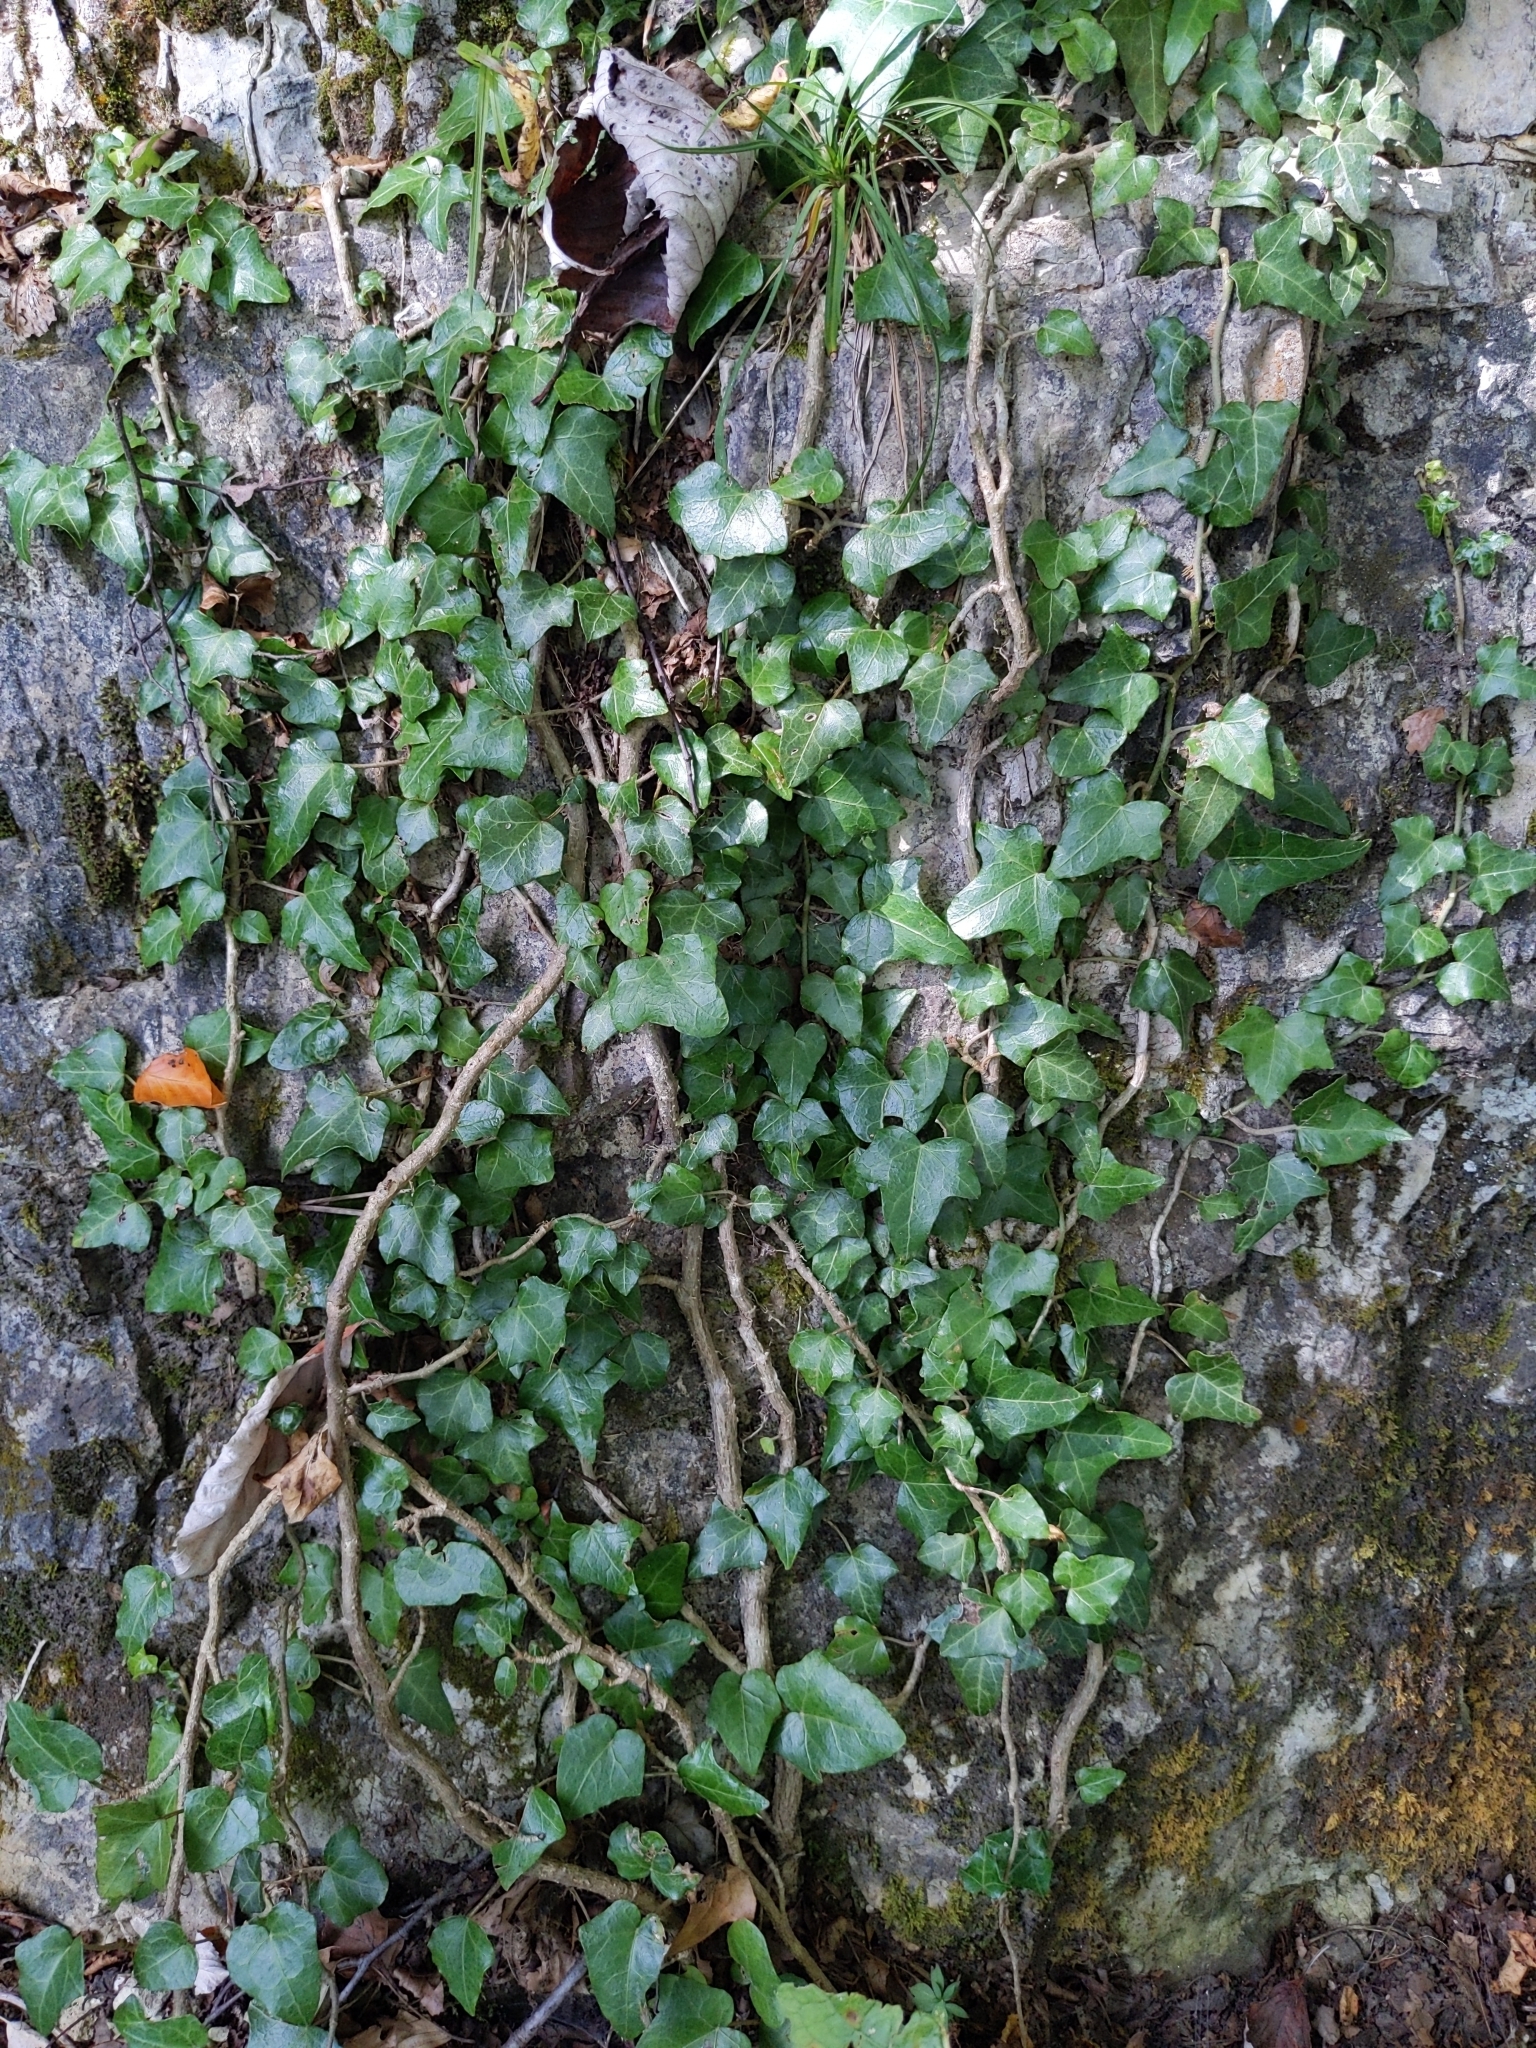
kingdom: Plantae
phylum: Tracheophyta
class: Magnoliopsida
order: Apiales
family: Araliaceae
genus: Hedera
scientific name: Hedera helix
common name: Ivy
